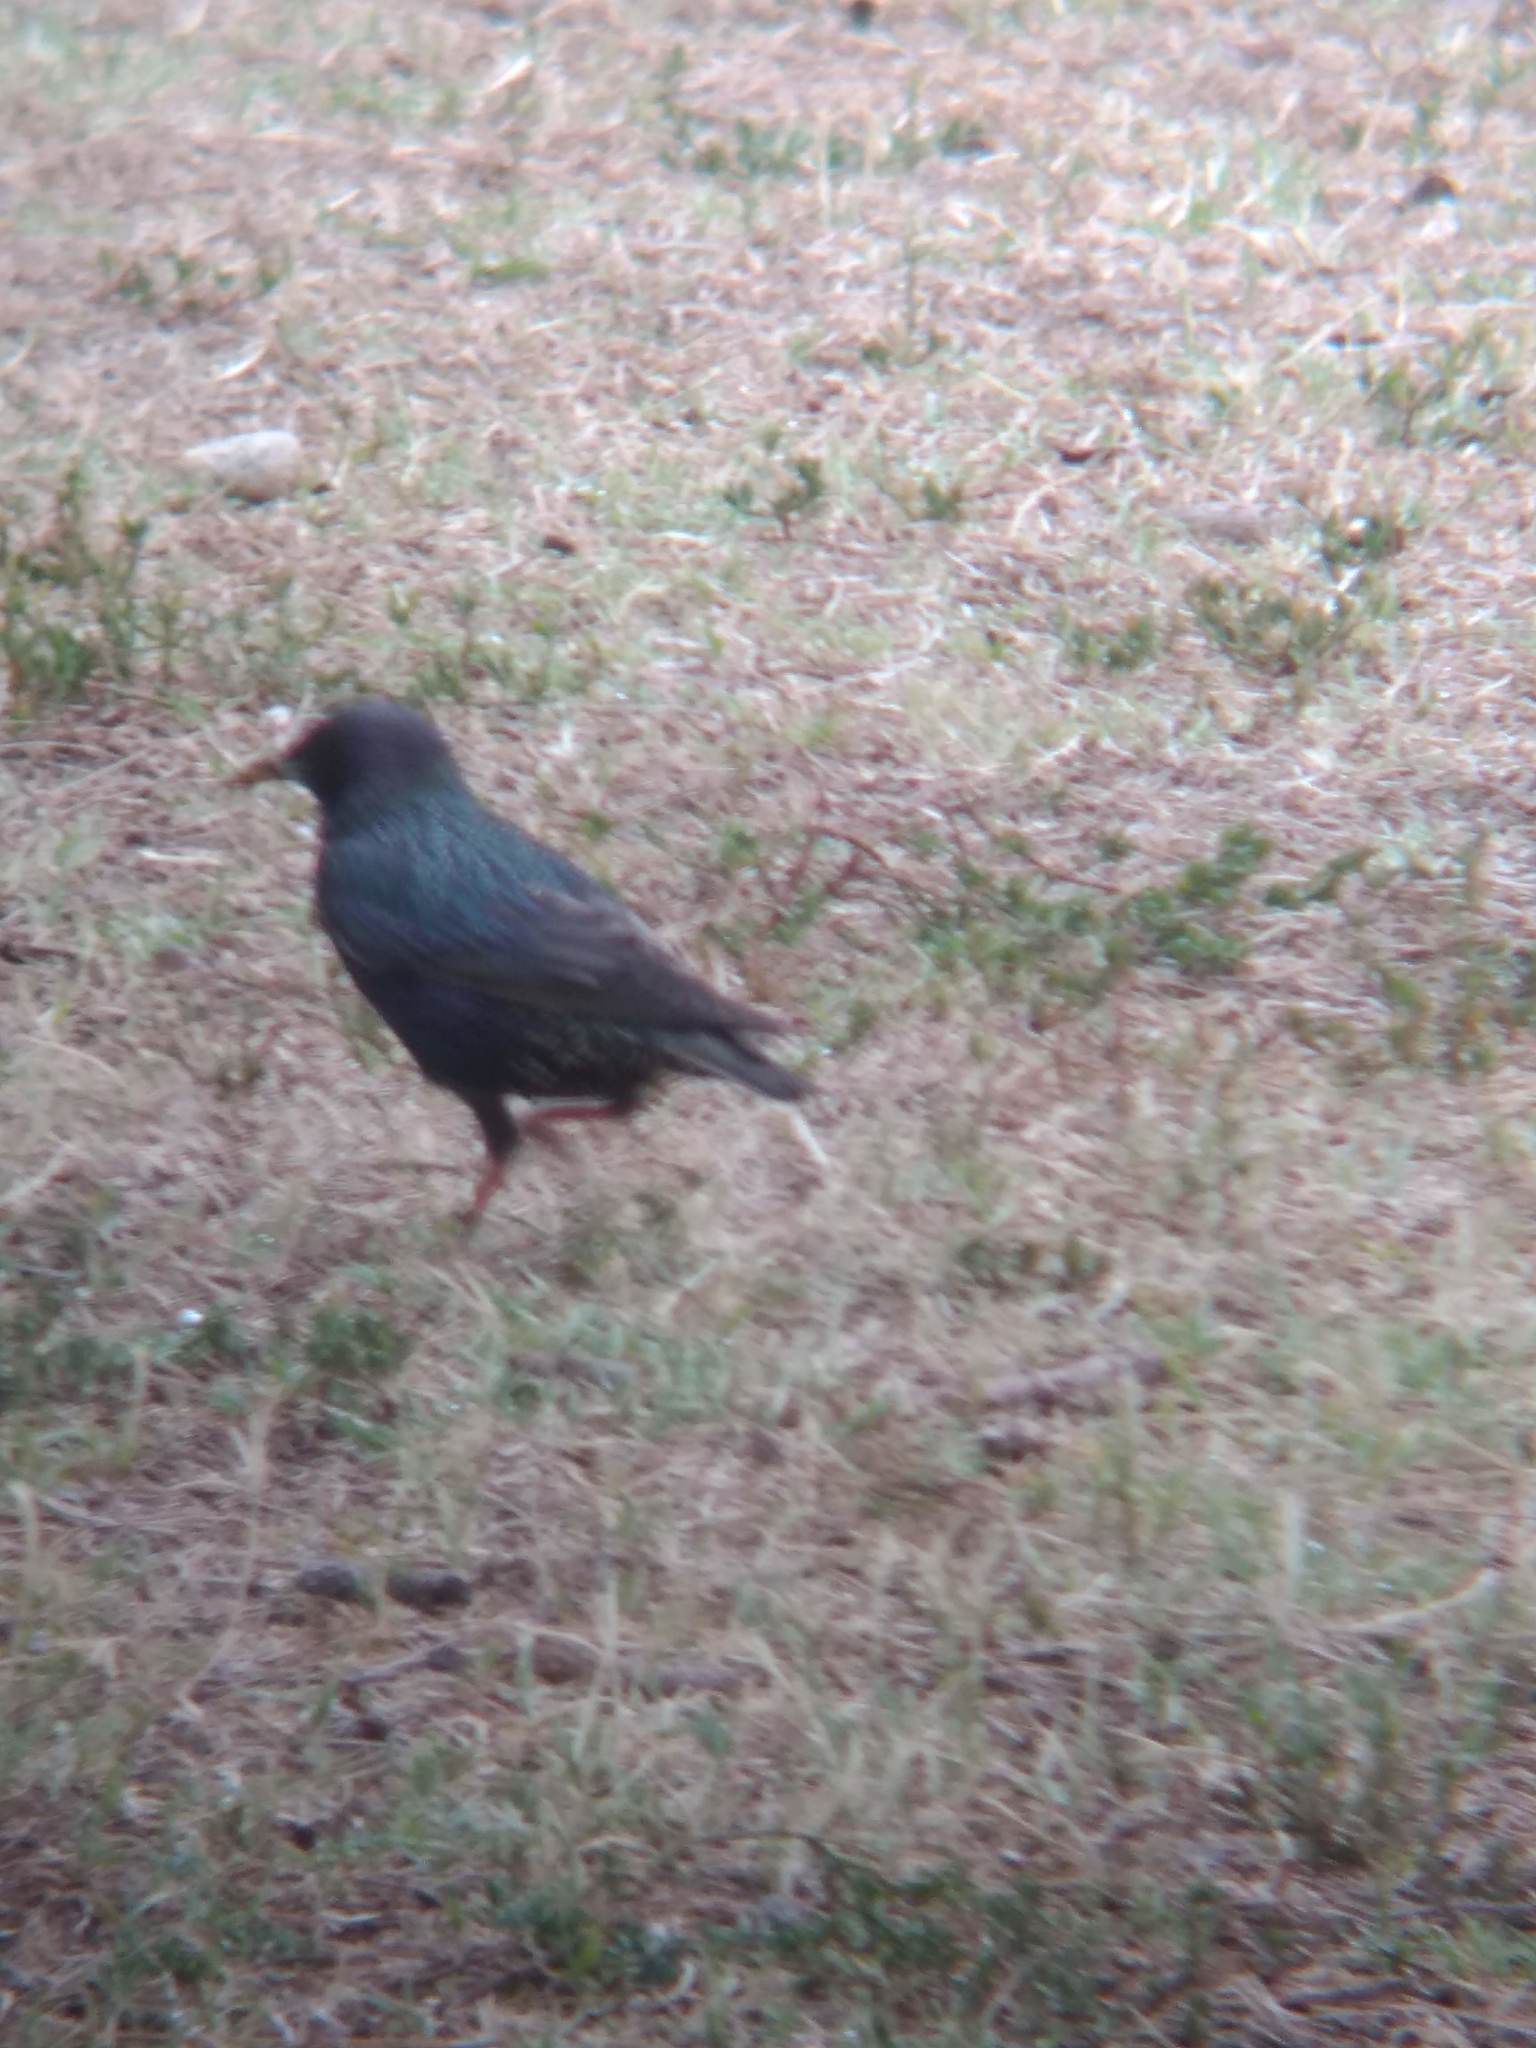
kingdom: Animalia
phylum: Chordata
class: Aves
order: Passeriformes
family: Sturnidae
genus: Sturnus
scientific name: Sturnus vulgaris
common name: Common starling
